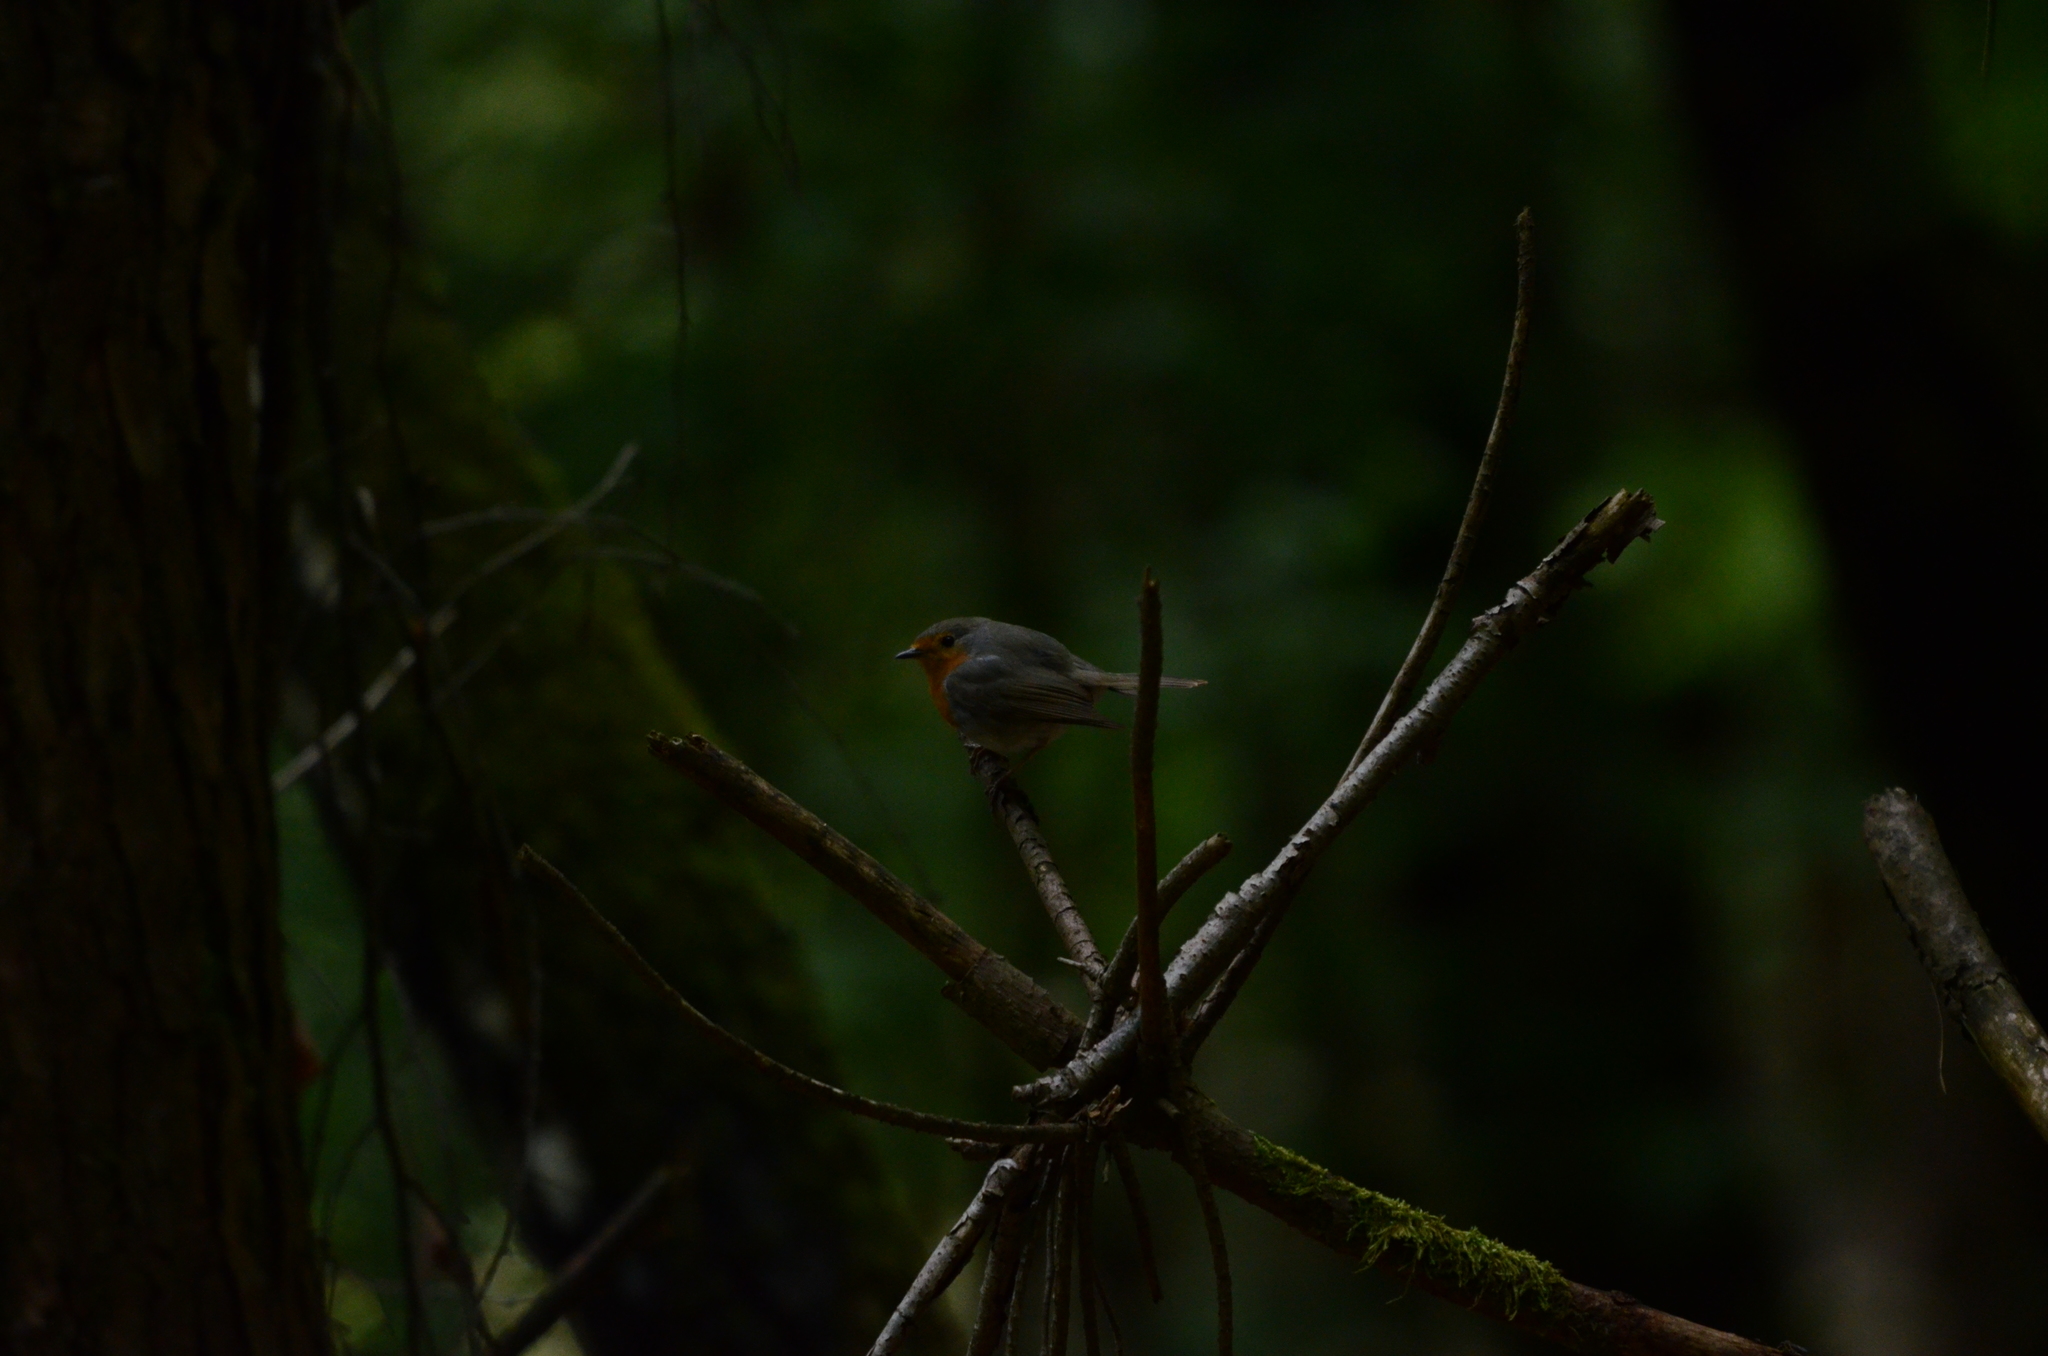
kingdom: Animalia
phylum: Chordata
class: Aves
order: Passeriformes
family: Muscicapidae
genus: Erithacus
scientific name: Erithacus rubecula
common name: European robin
